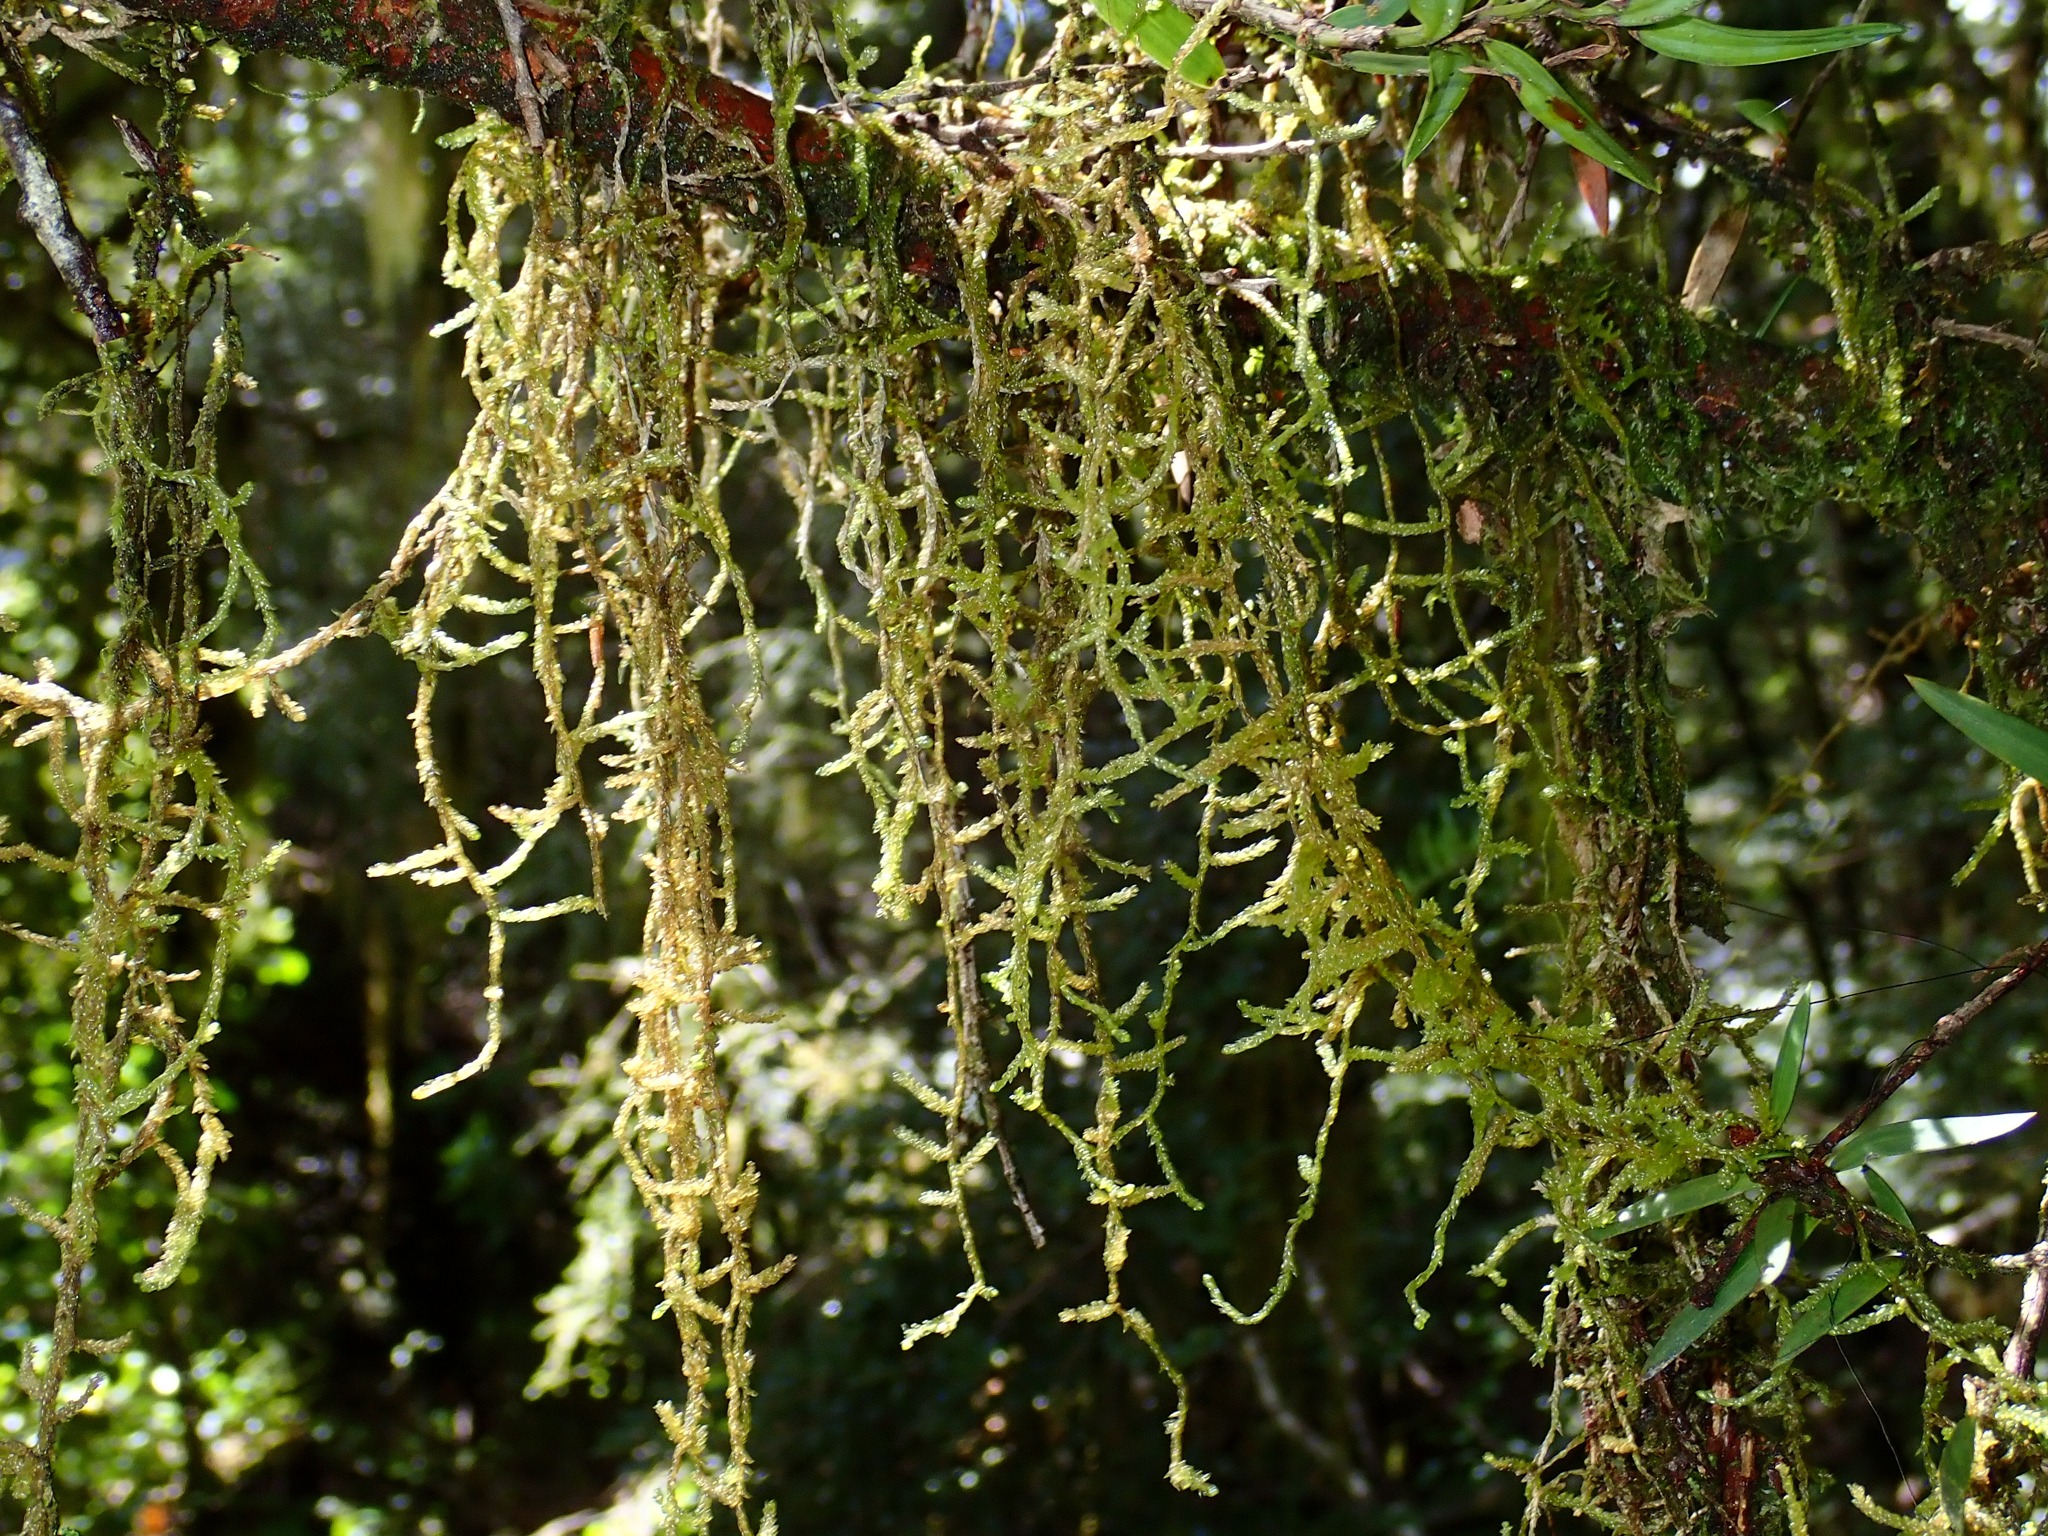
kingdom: Plantae
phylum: Bryophyta
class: Bryopsida
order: Hypnales
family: Lembophyllaceae
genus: Weymouthia
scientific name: Weymouthia mollis
